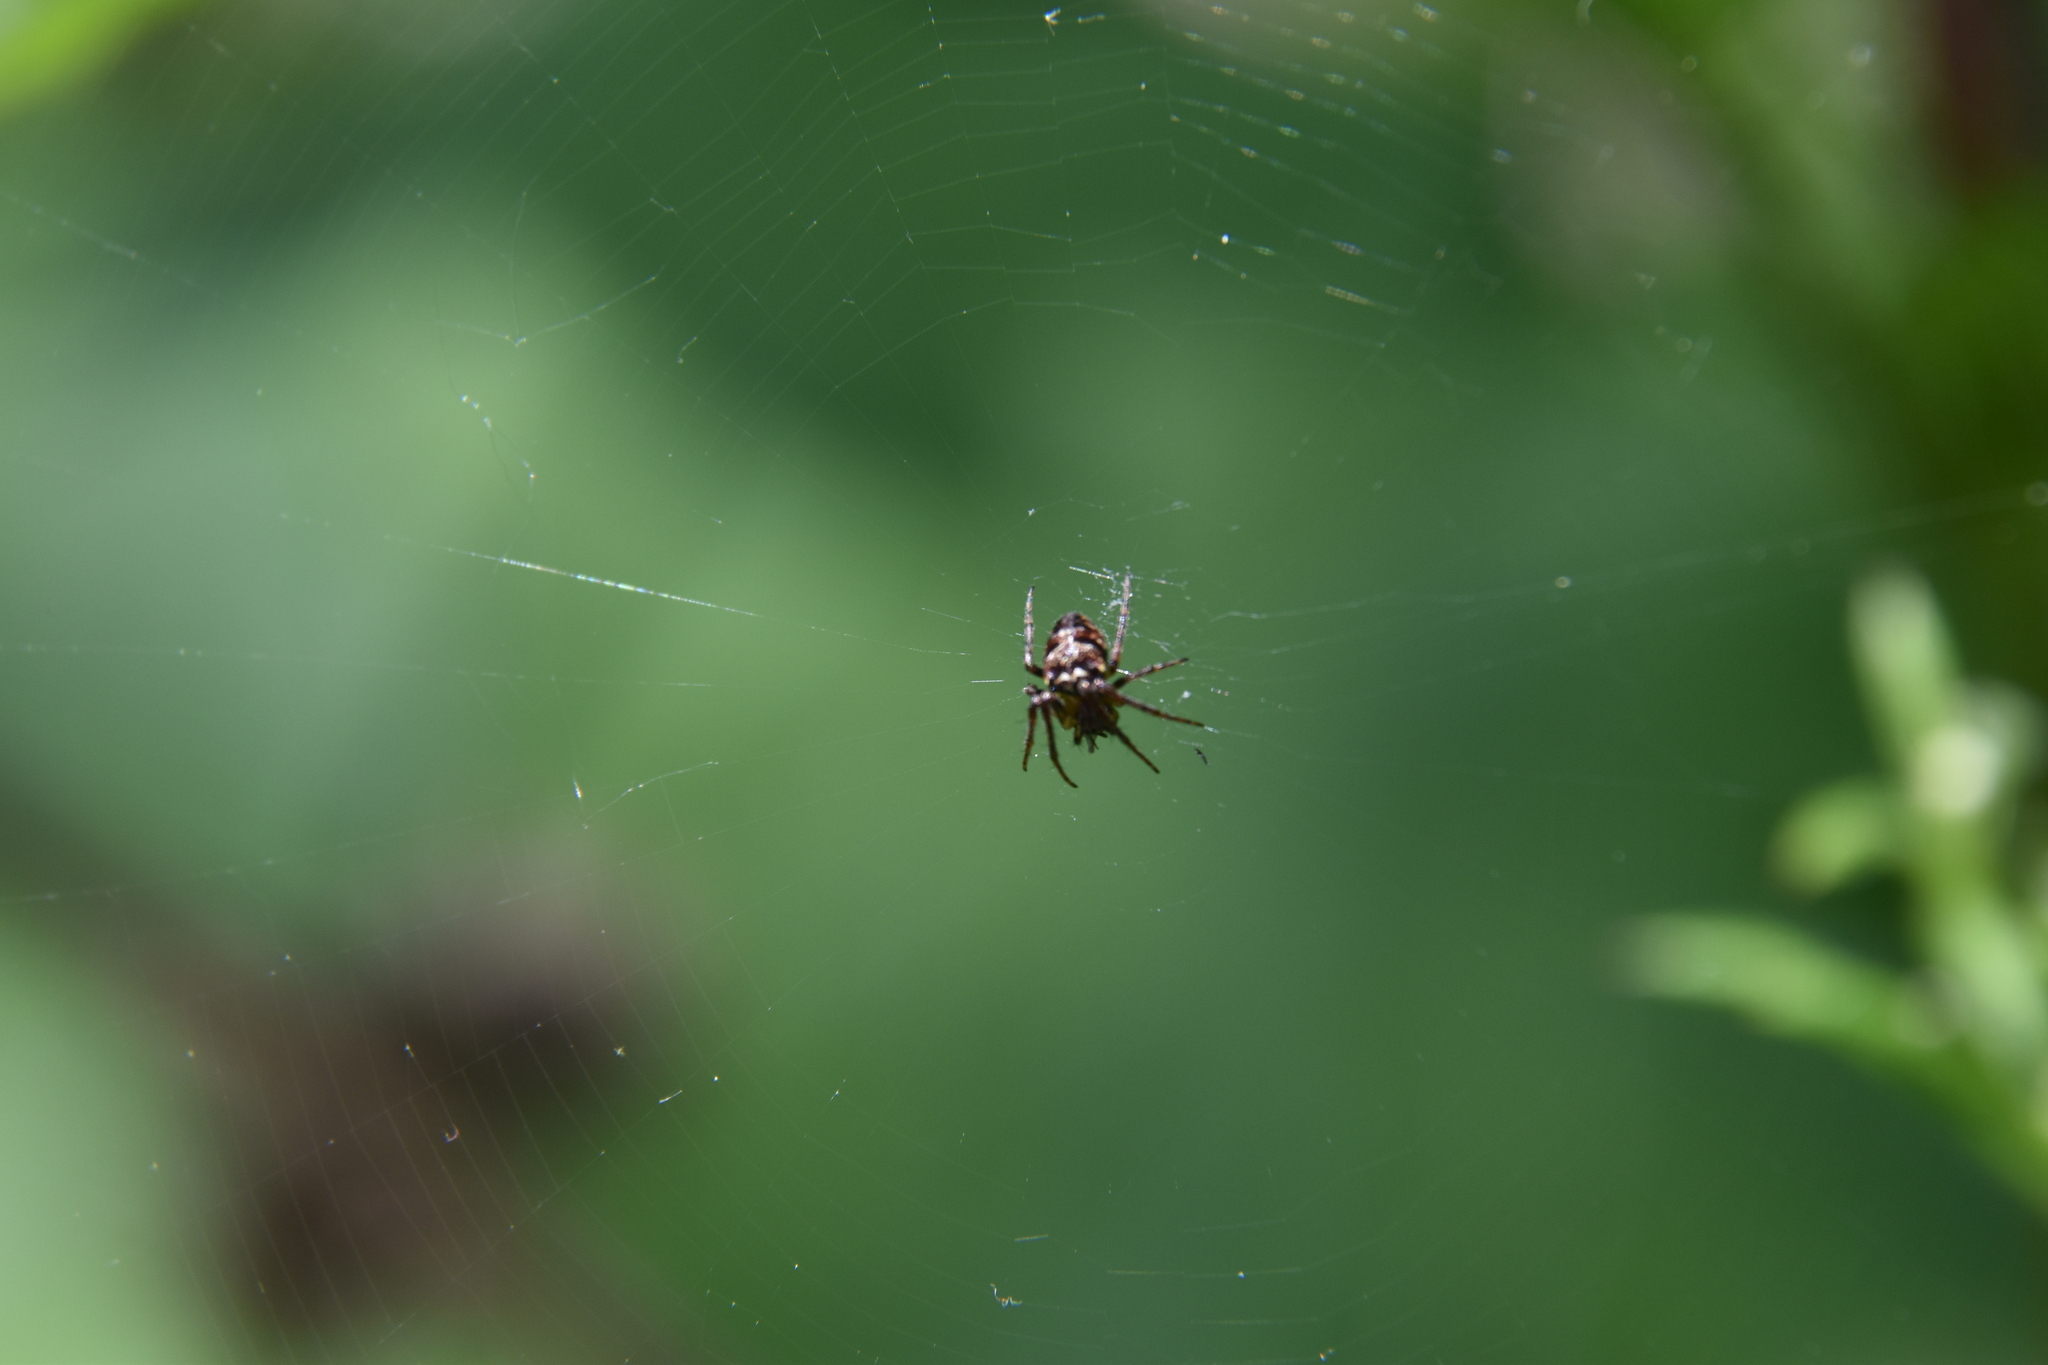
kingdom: Animalia
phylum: Arthropoda
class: Arachnida
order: Araneae
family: Araneidae
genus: Zilla
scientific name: Zilla diodia
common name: Zilla diodia
